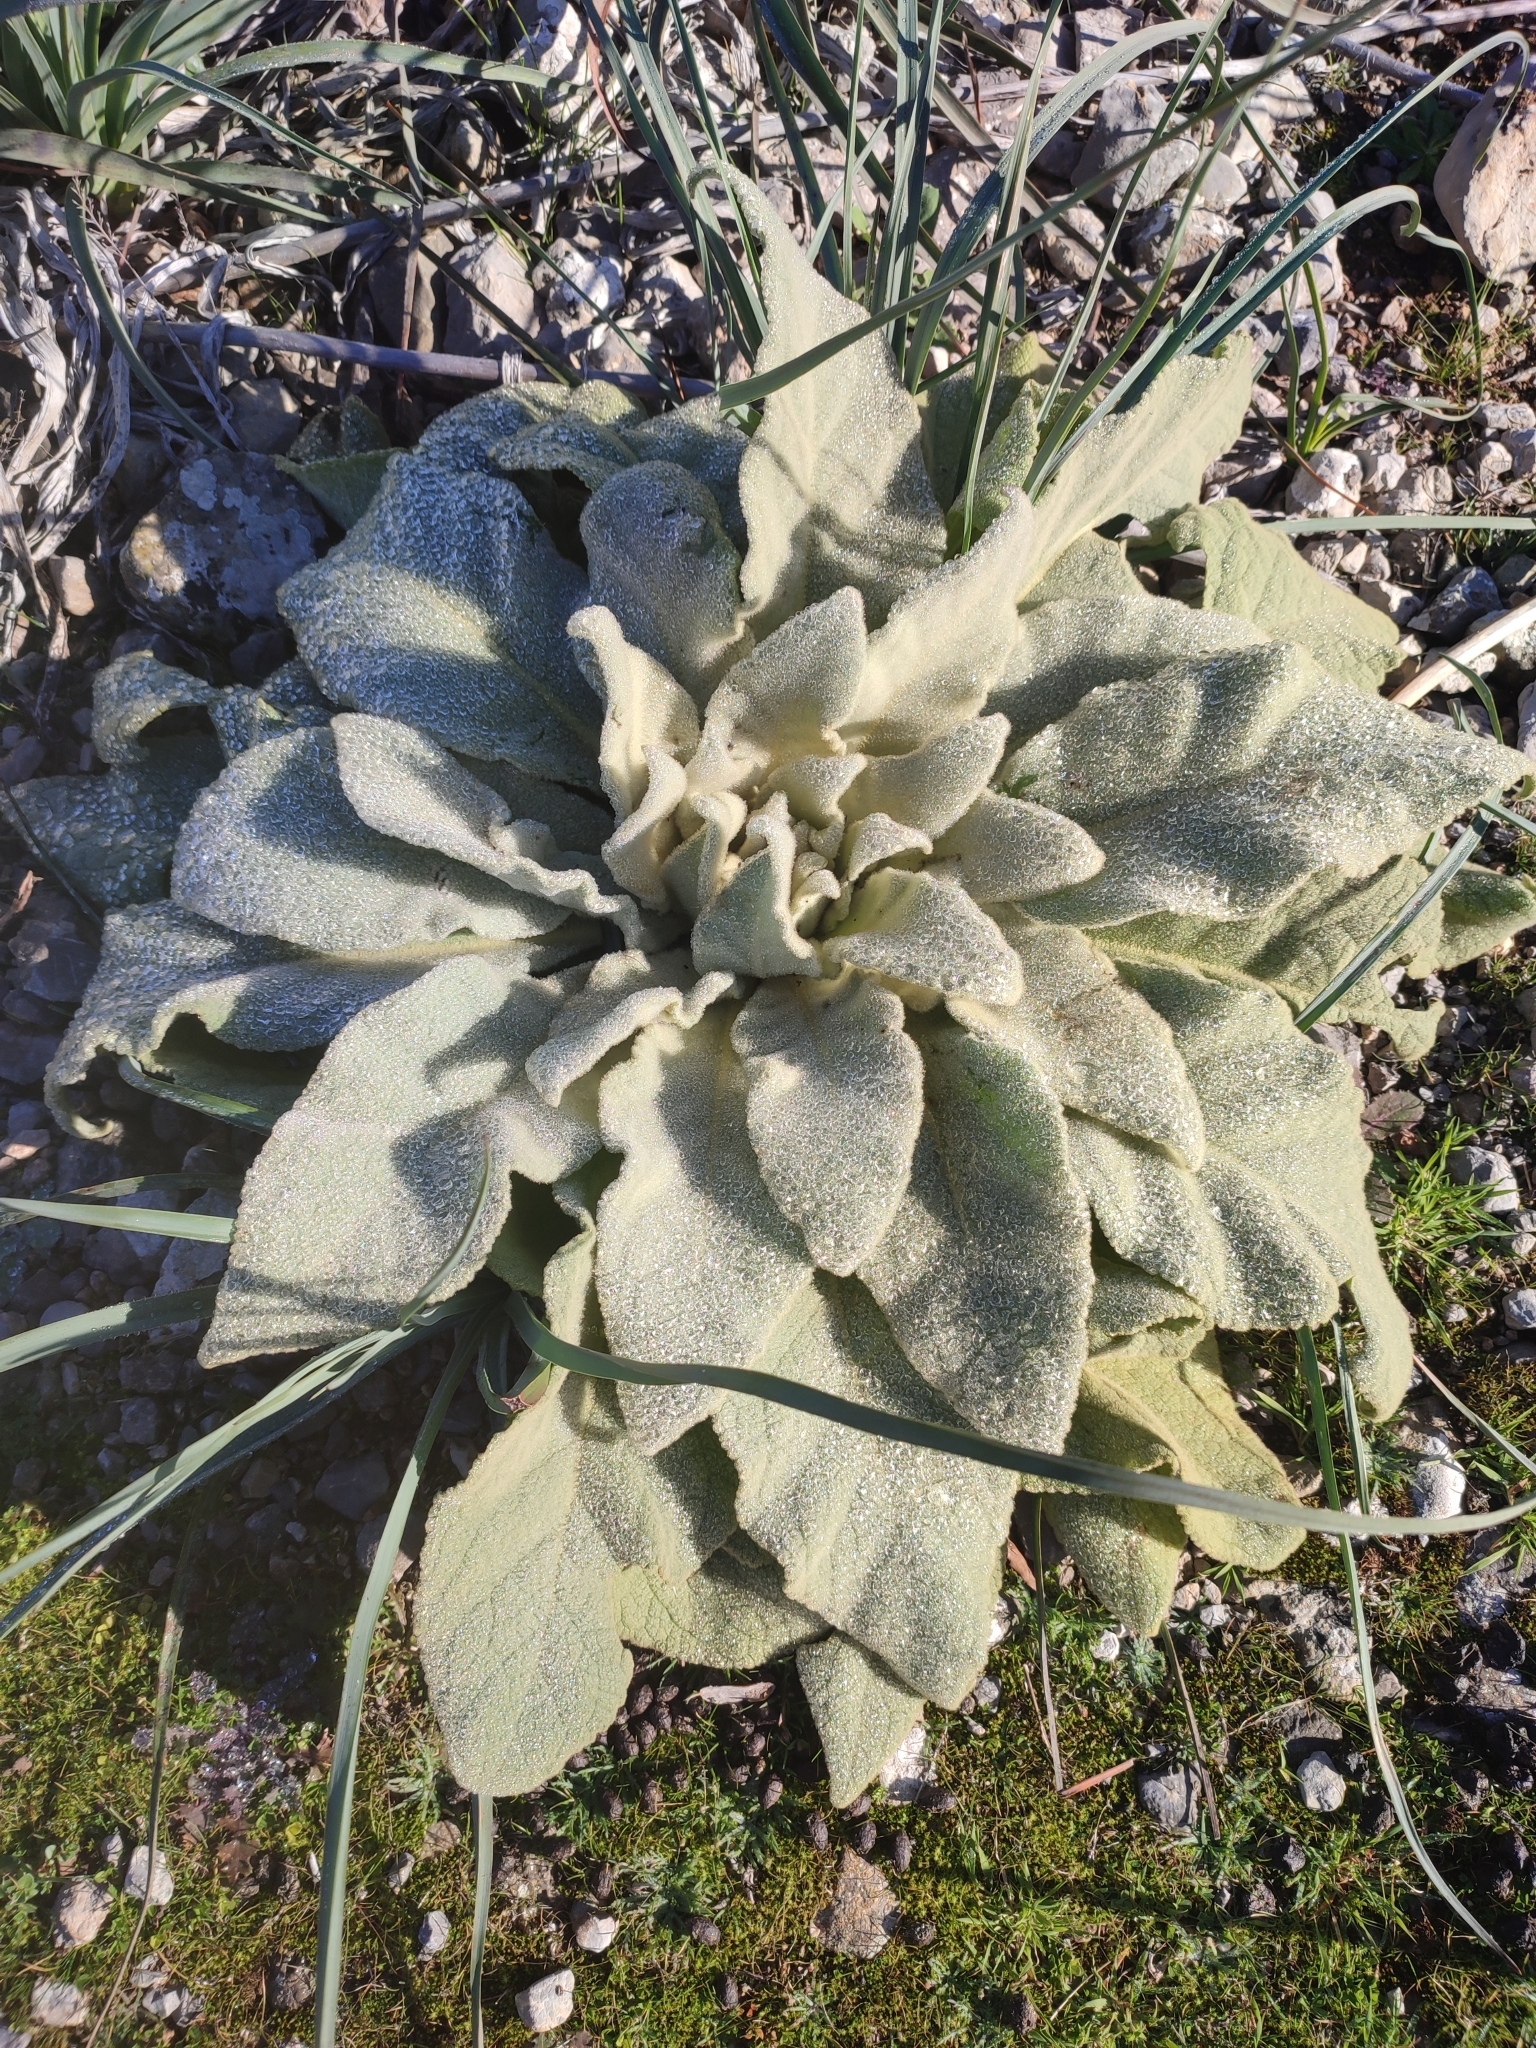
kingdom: Plantae
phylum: Tracheophyta
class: Magnoliopsida
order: Lamiales
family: Scrophulariaceae
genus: Verbascum
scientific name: Verbascum thapsus
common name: Common mullein
